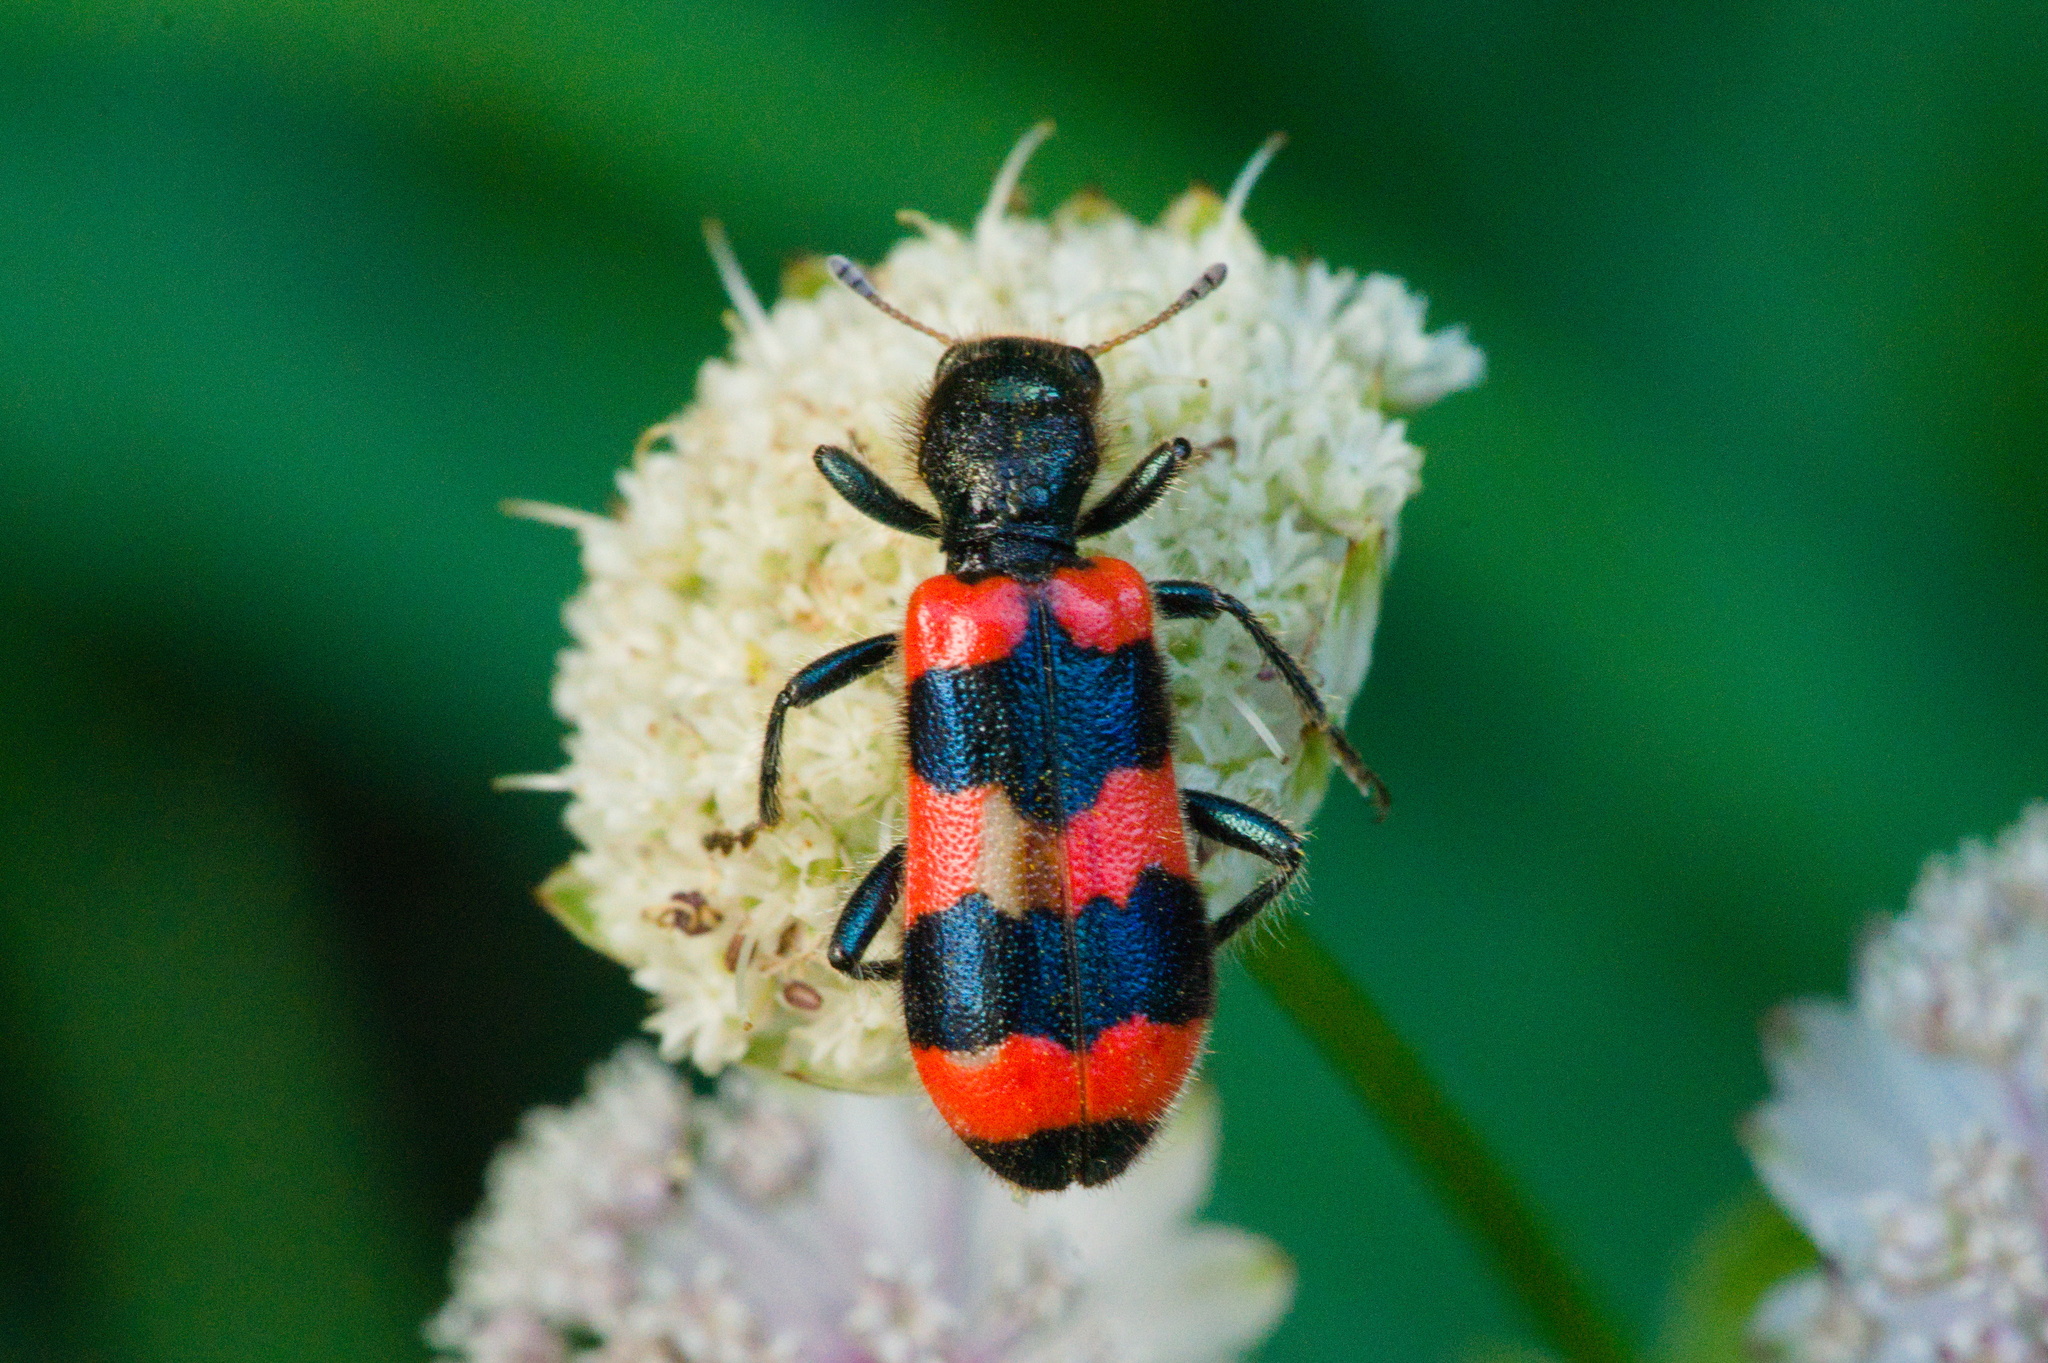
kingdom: Animalia
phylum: Arthropoda
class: Insecta
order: Coleoptera
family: Cleridae
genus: Trichodes
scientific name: Trichodes apiarius
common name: Bee-eating beetle
